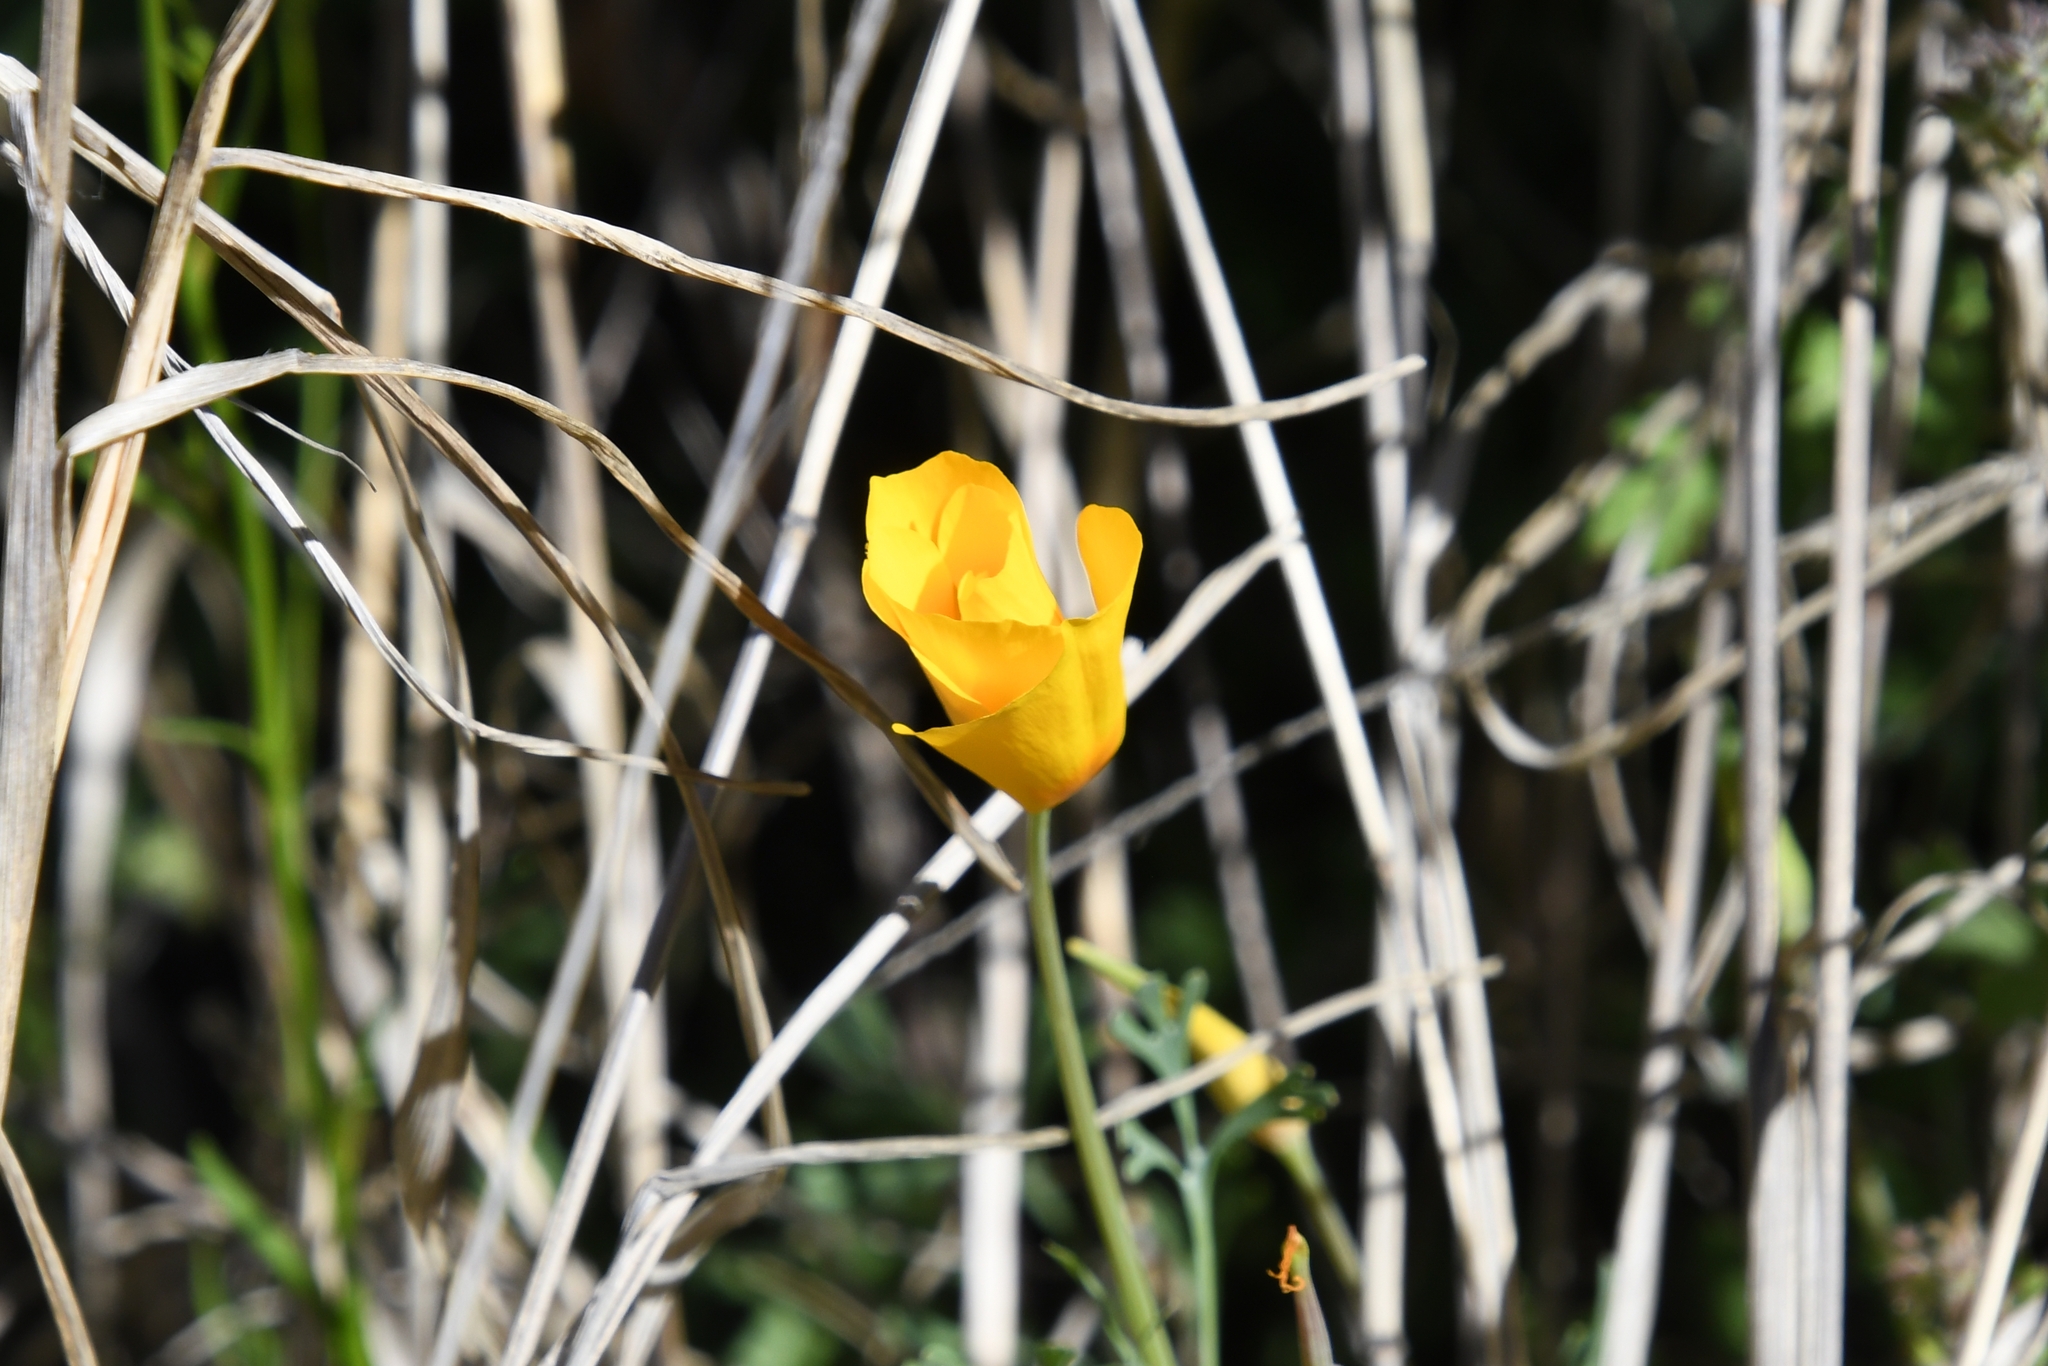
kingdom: Plantae
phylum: Tracheophyta
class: Magnoliopsida
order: Ranunculales
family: Papaveraceae
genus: Eschscholzia
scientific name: Eschscholzia californica
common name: California poppy
